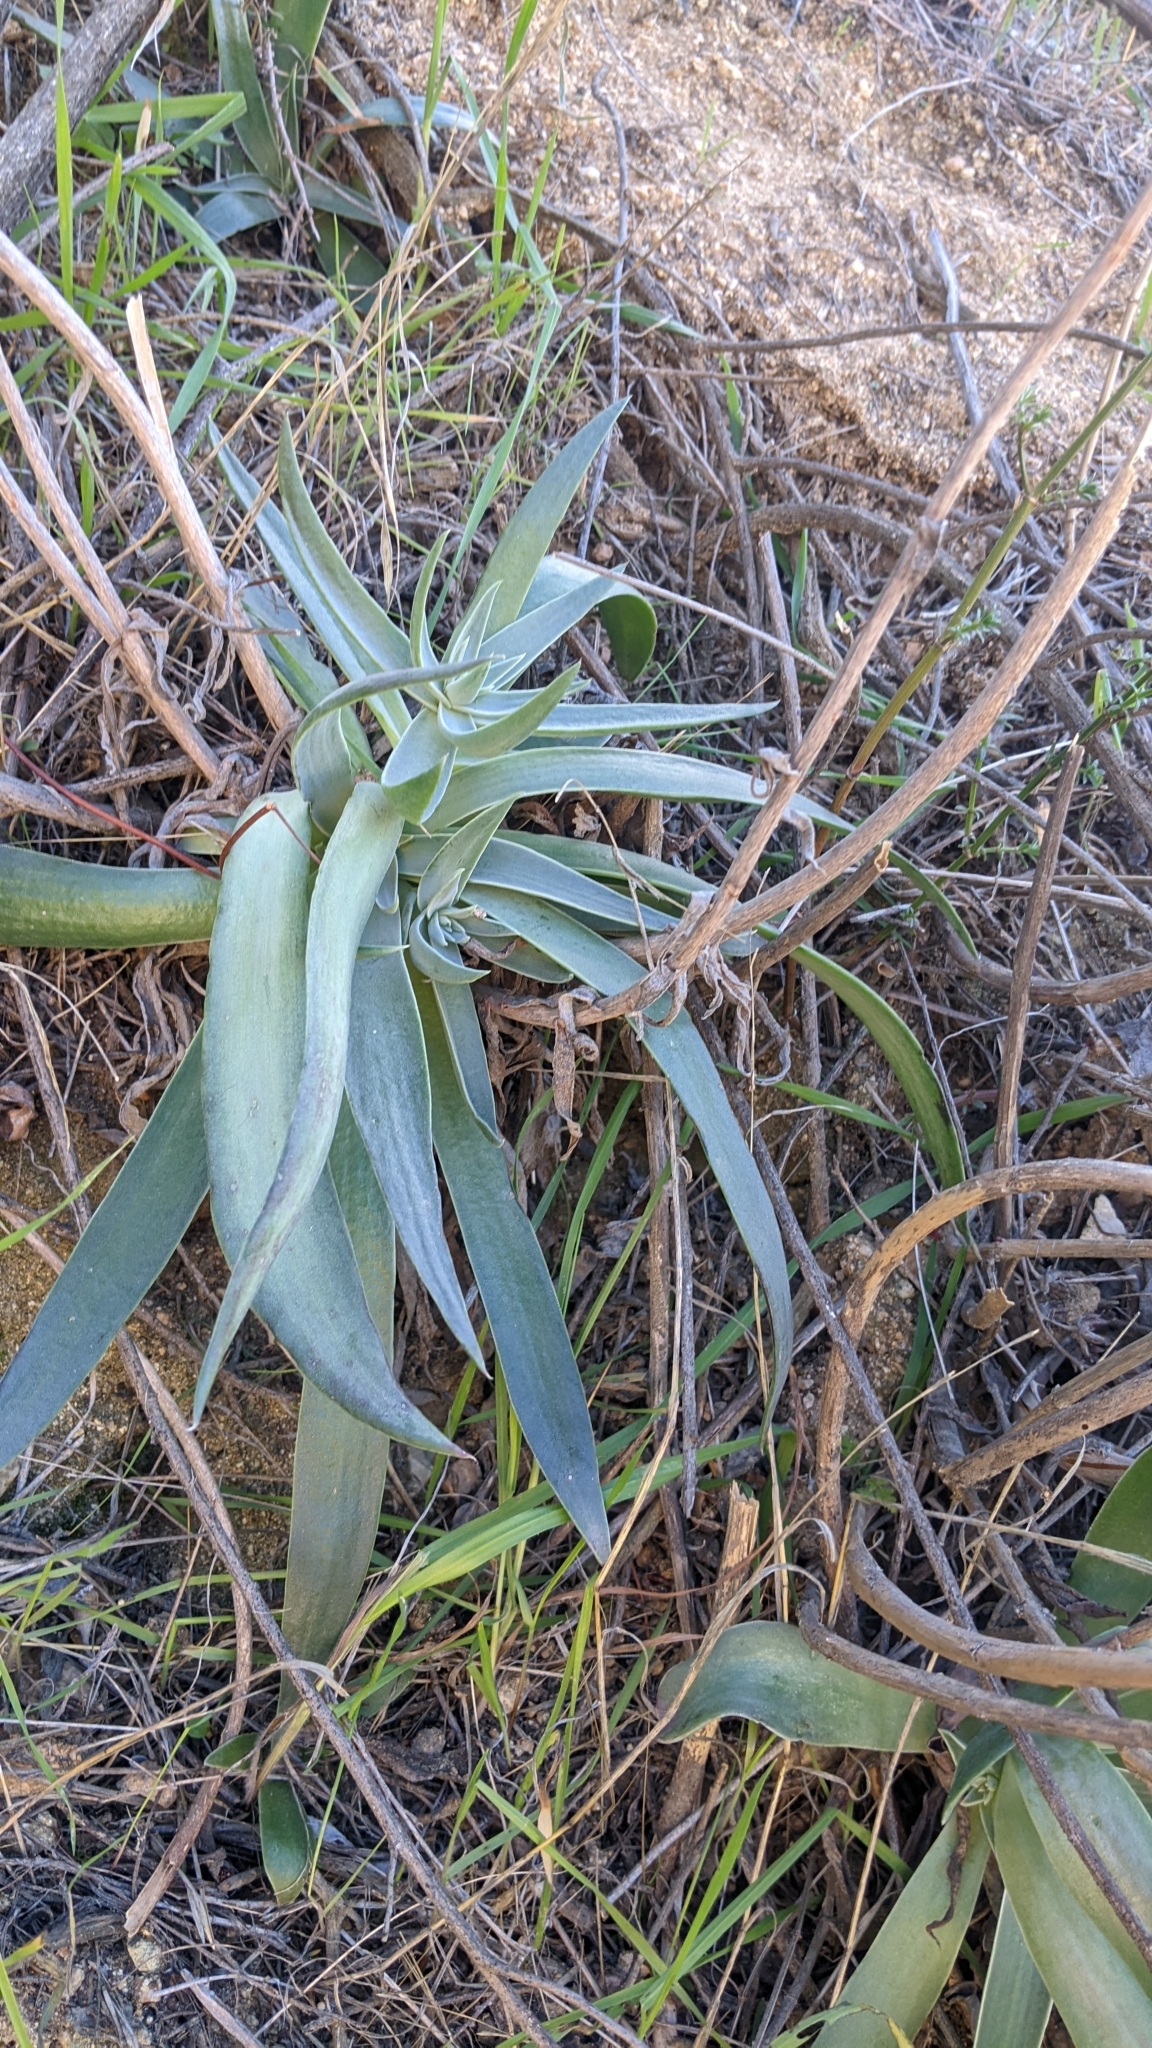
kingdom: Plantae
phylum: Tracheophyta
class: Magnoliopsida
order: Saxifragales
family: Crassulaceae
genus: Dudleya
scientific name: Dudleya lanceolata
